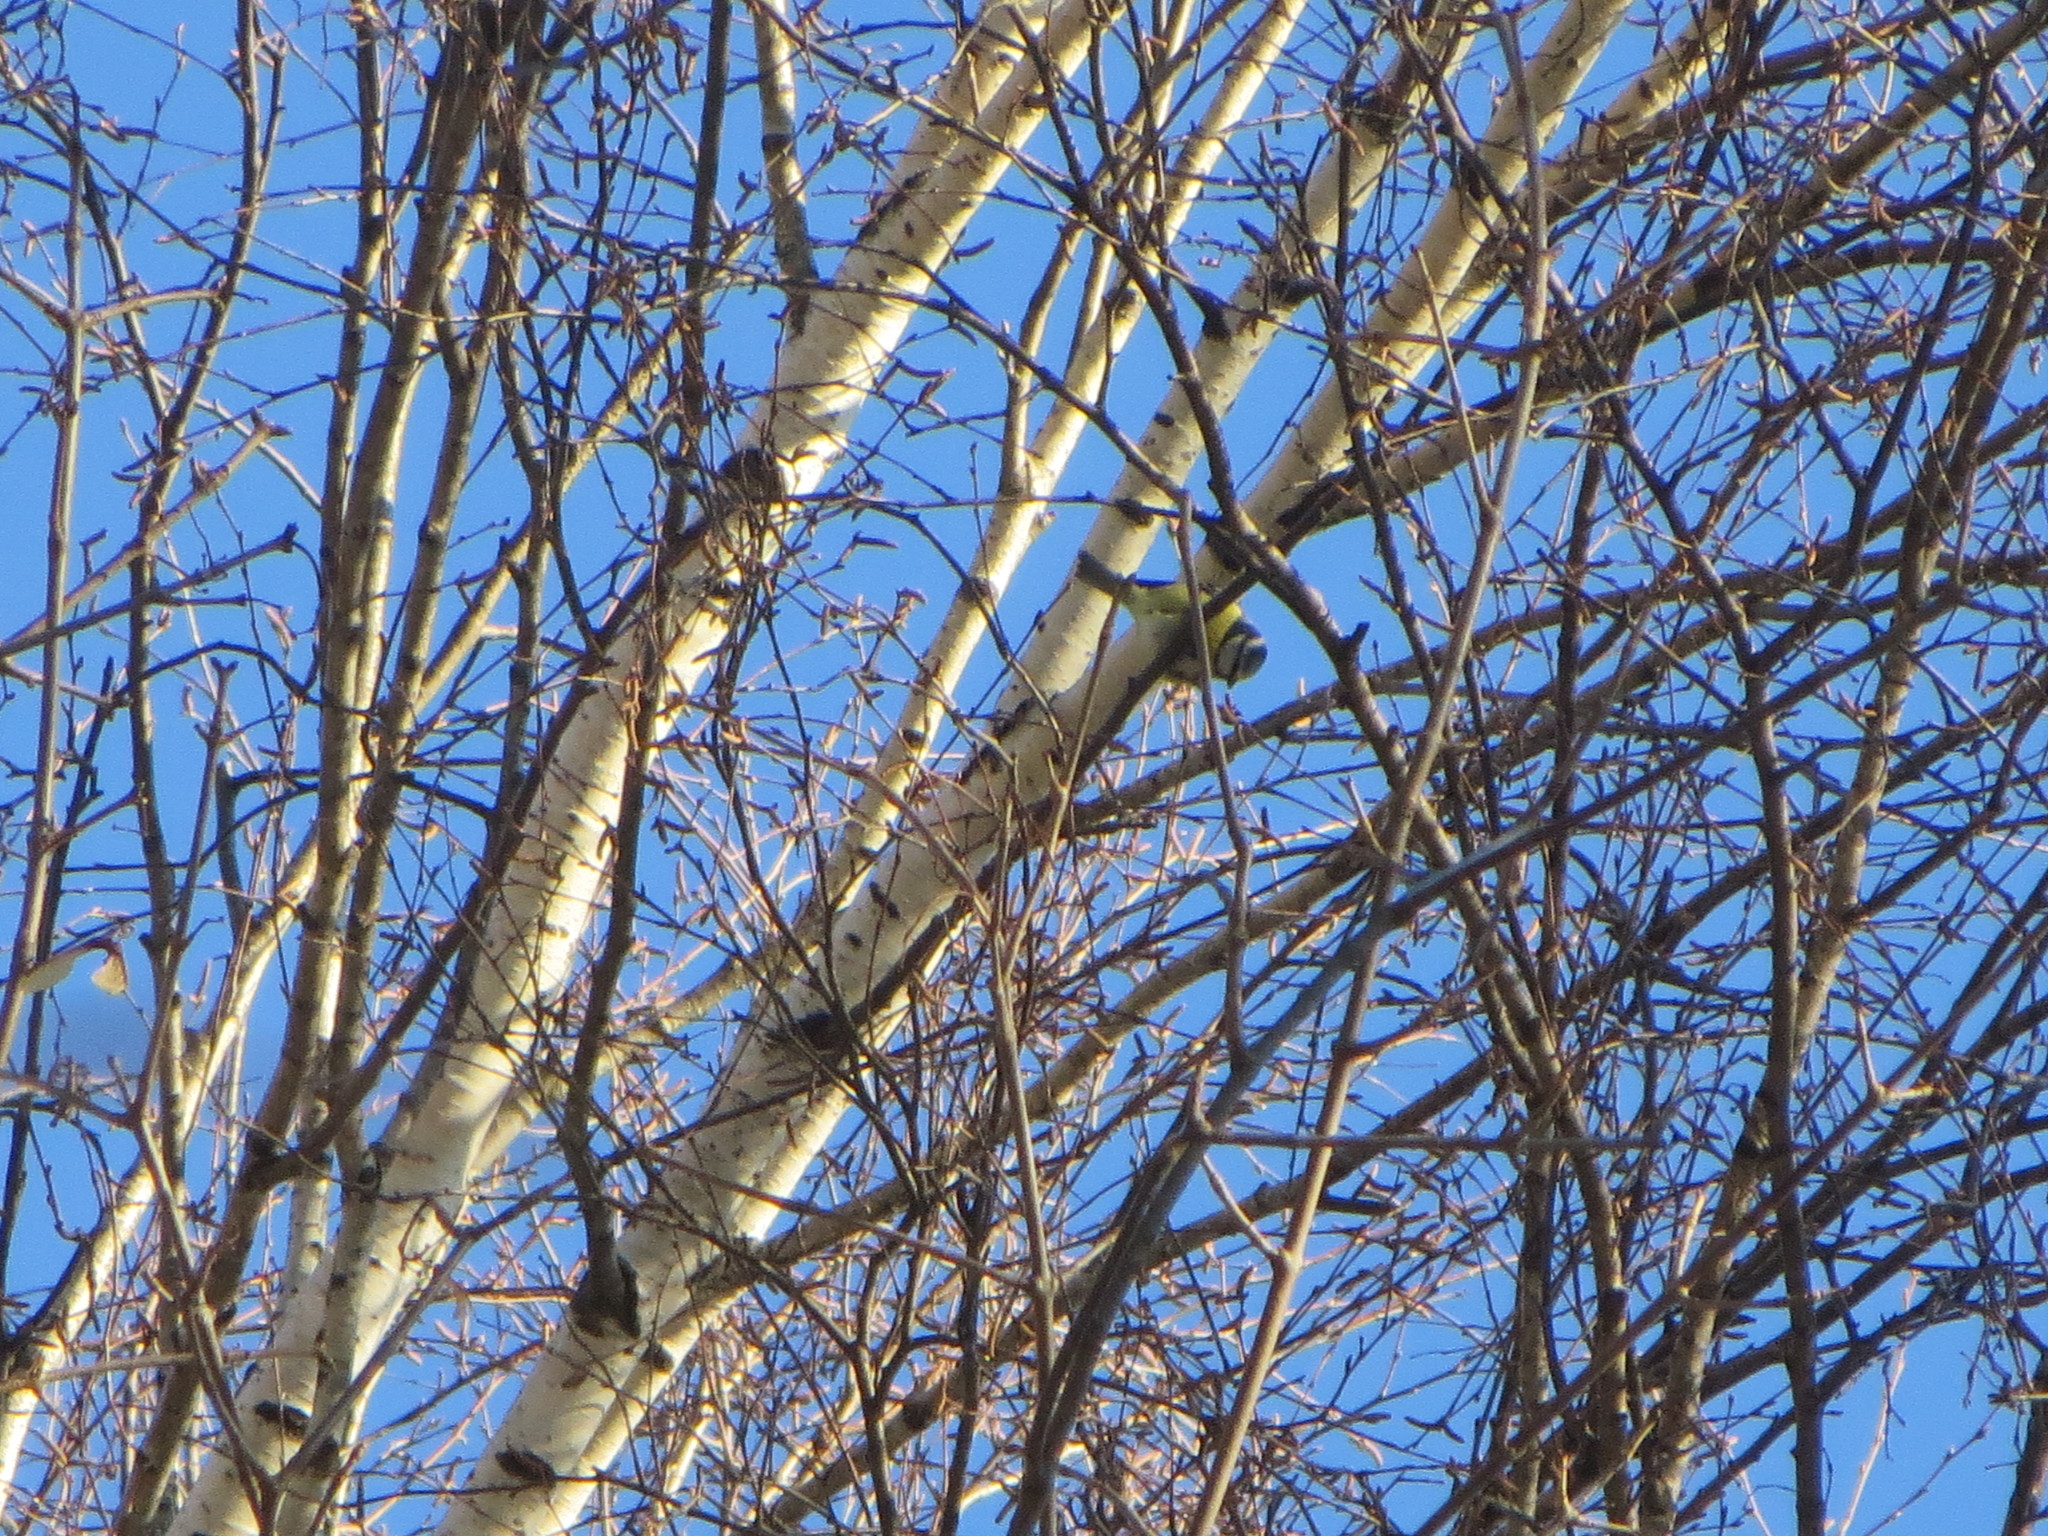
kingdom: Animalia
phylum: Chordata
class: Aves
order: Passeriformes
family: Paridae
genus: Cyanistes
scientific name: Cyanistes caeruleus
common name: Eurasian blue tit
